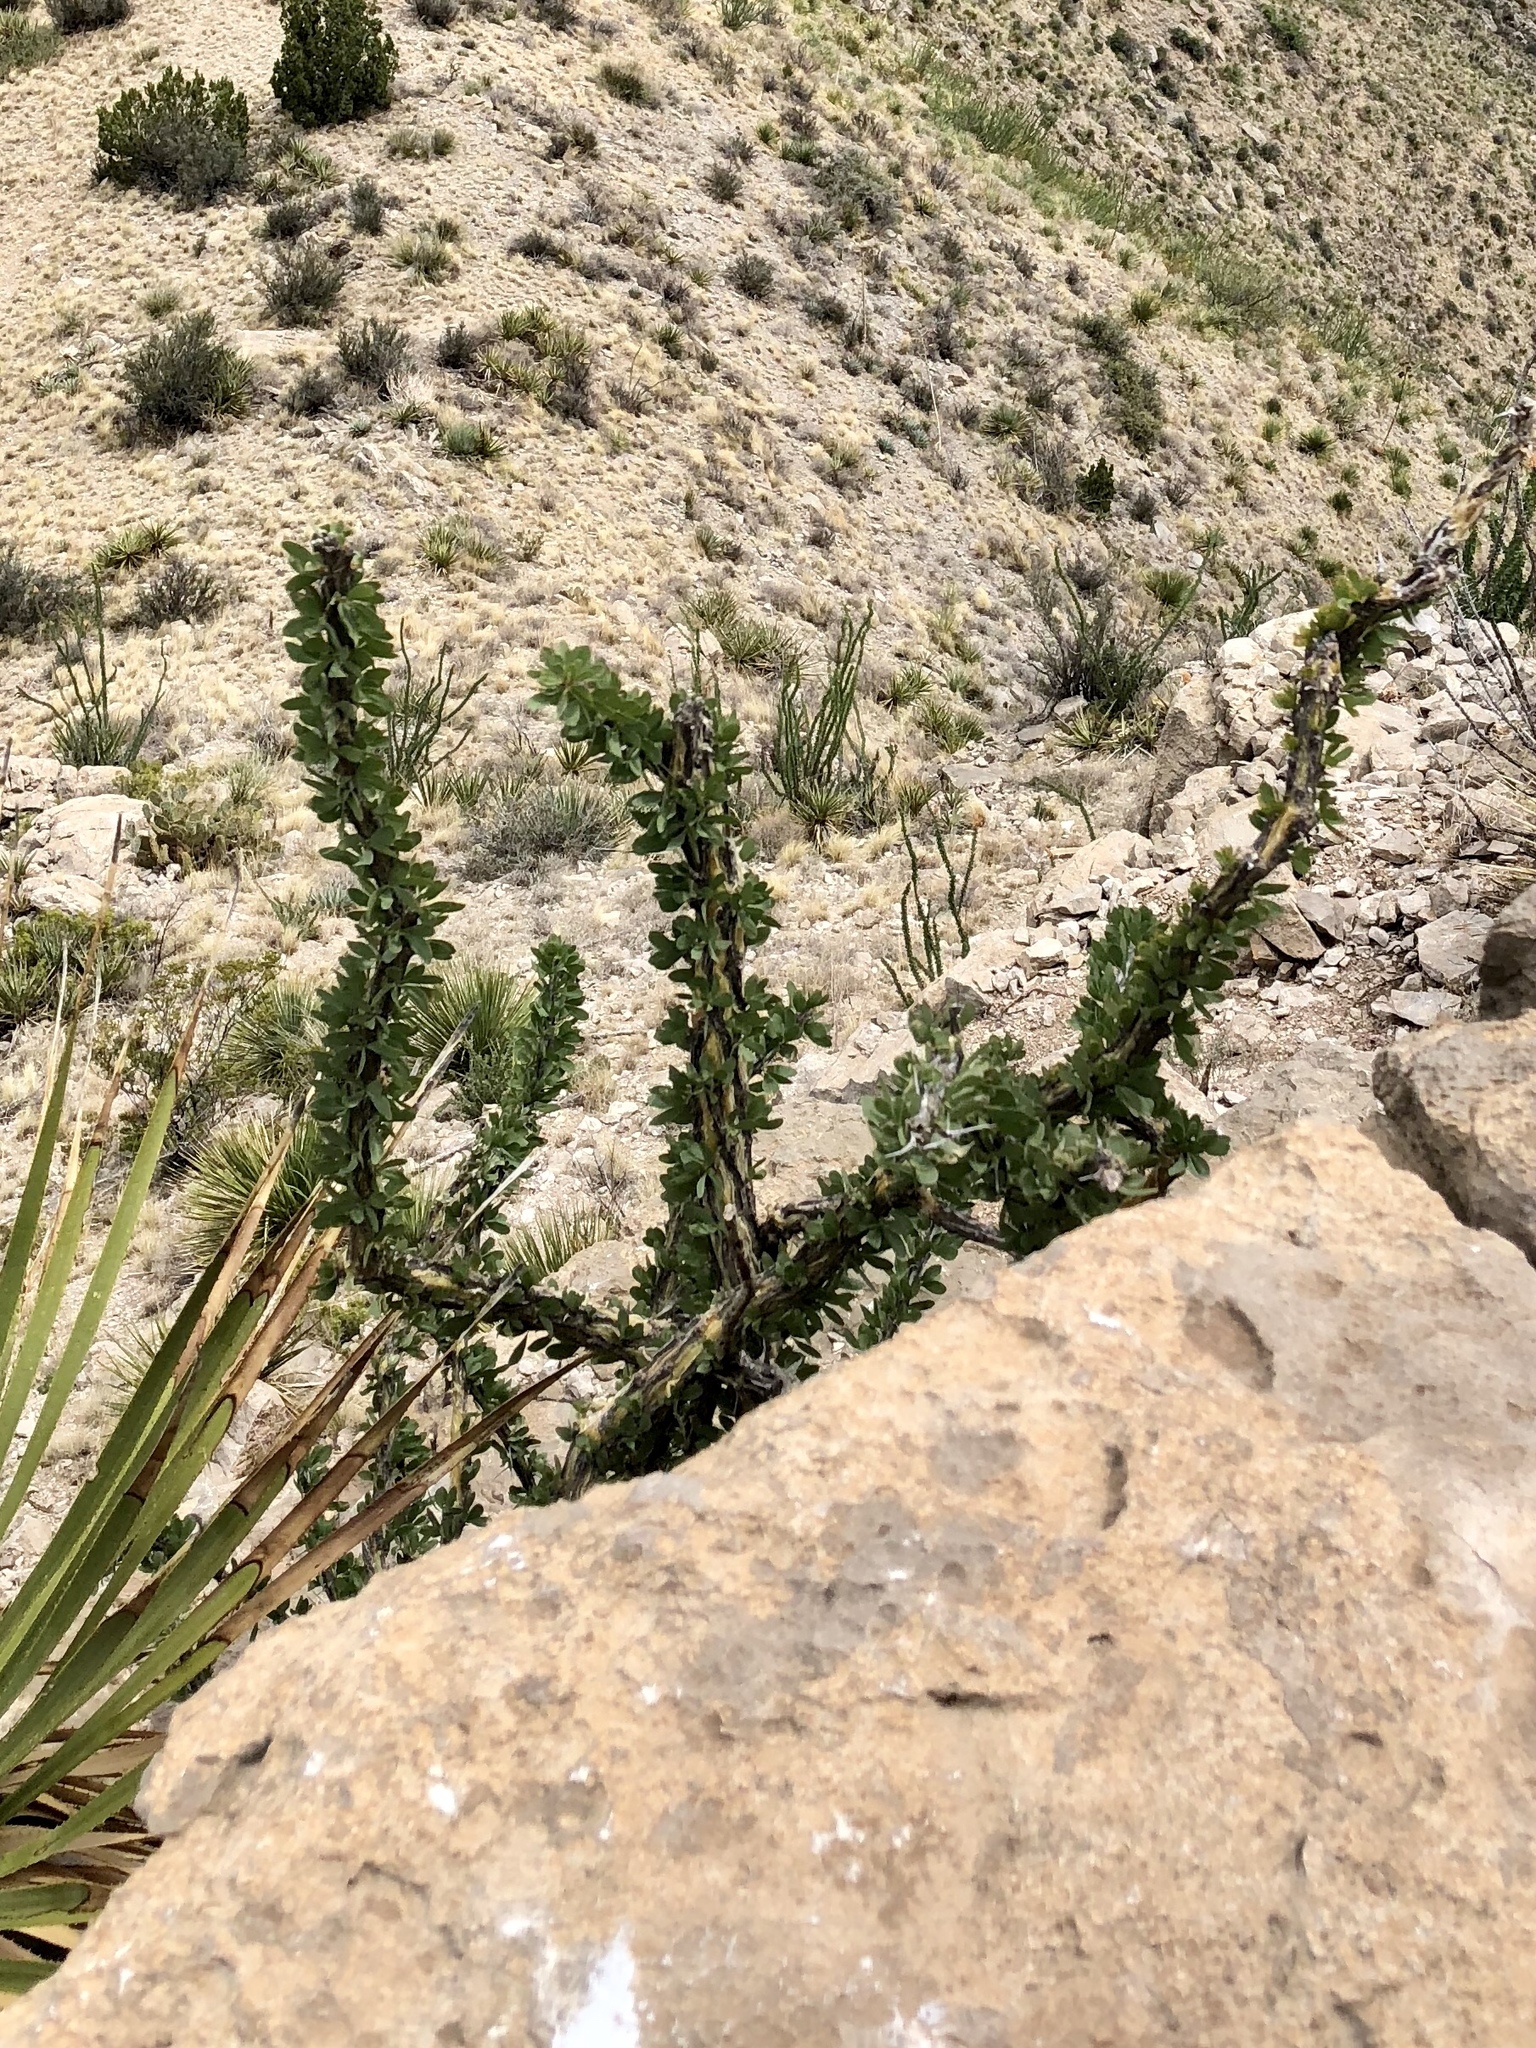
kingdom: Plantae
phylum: Tracheophyta
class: Magnoliopsida
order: Ericales
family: Fouquieriaceae
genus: Fouquieria
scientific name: Fouquieria splendens
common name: Vine-cactus
